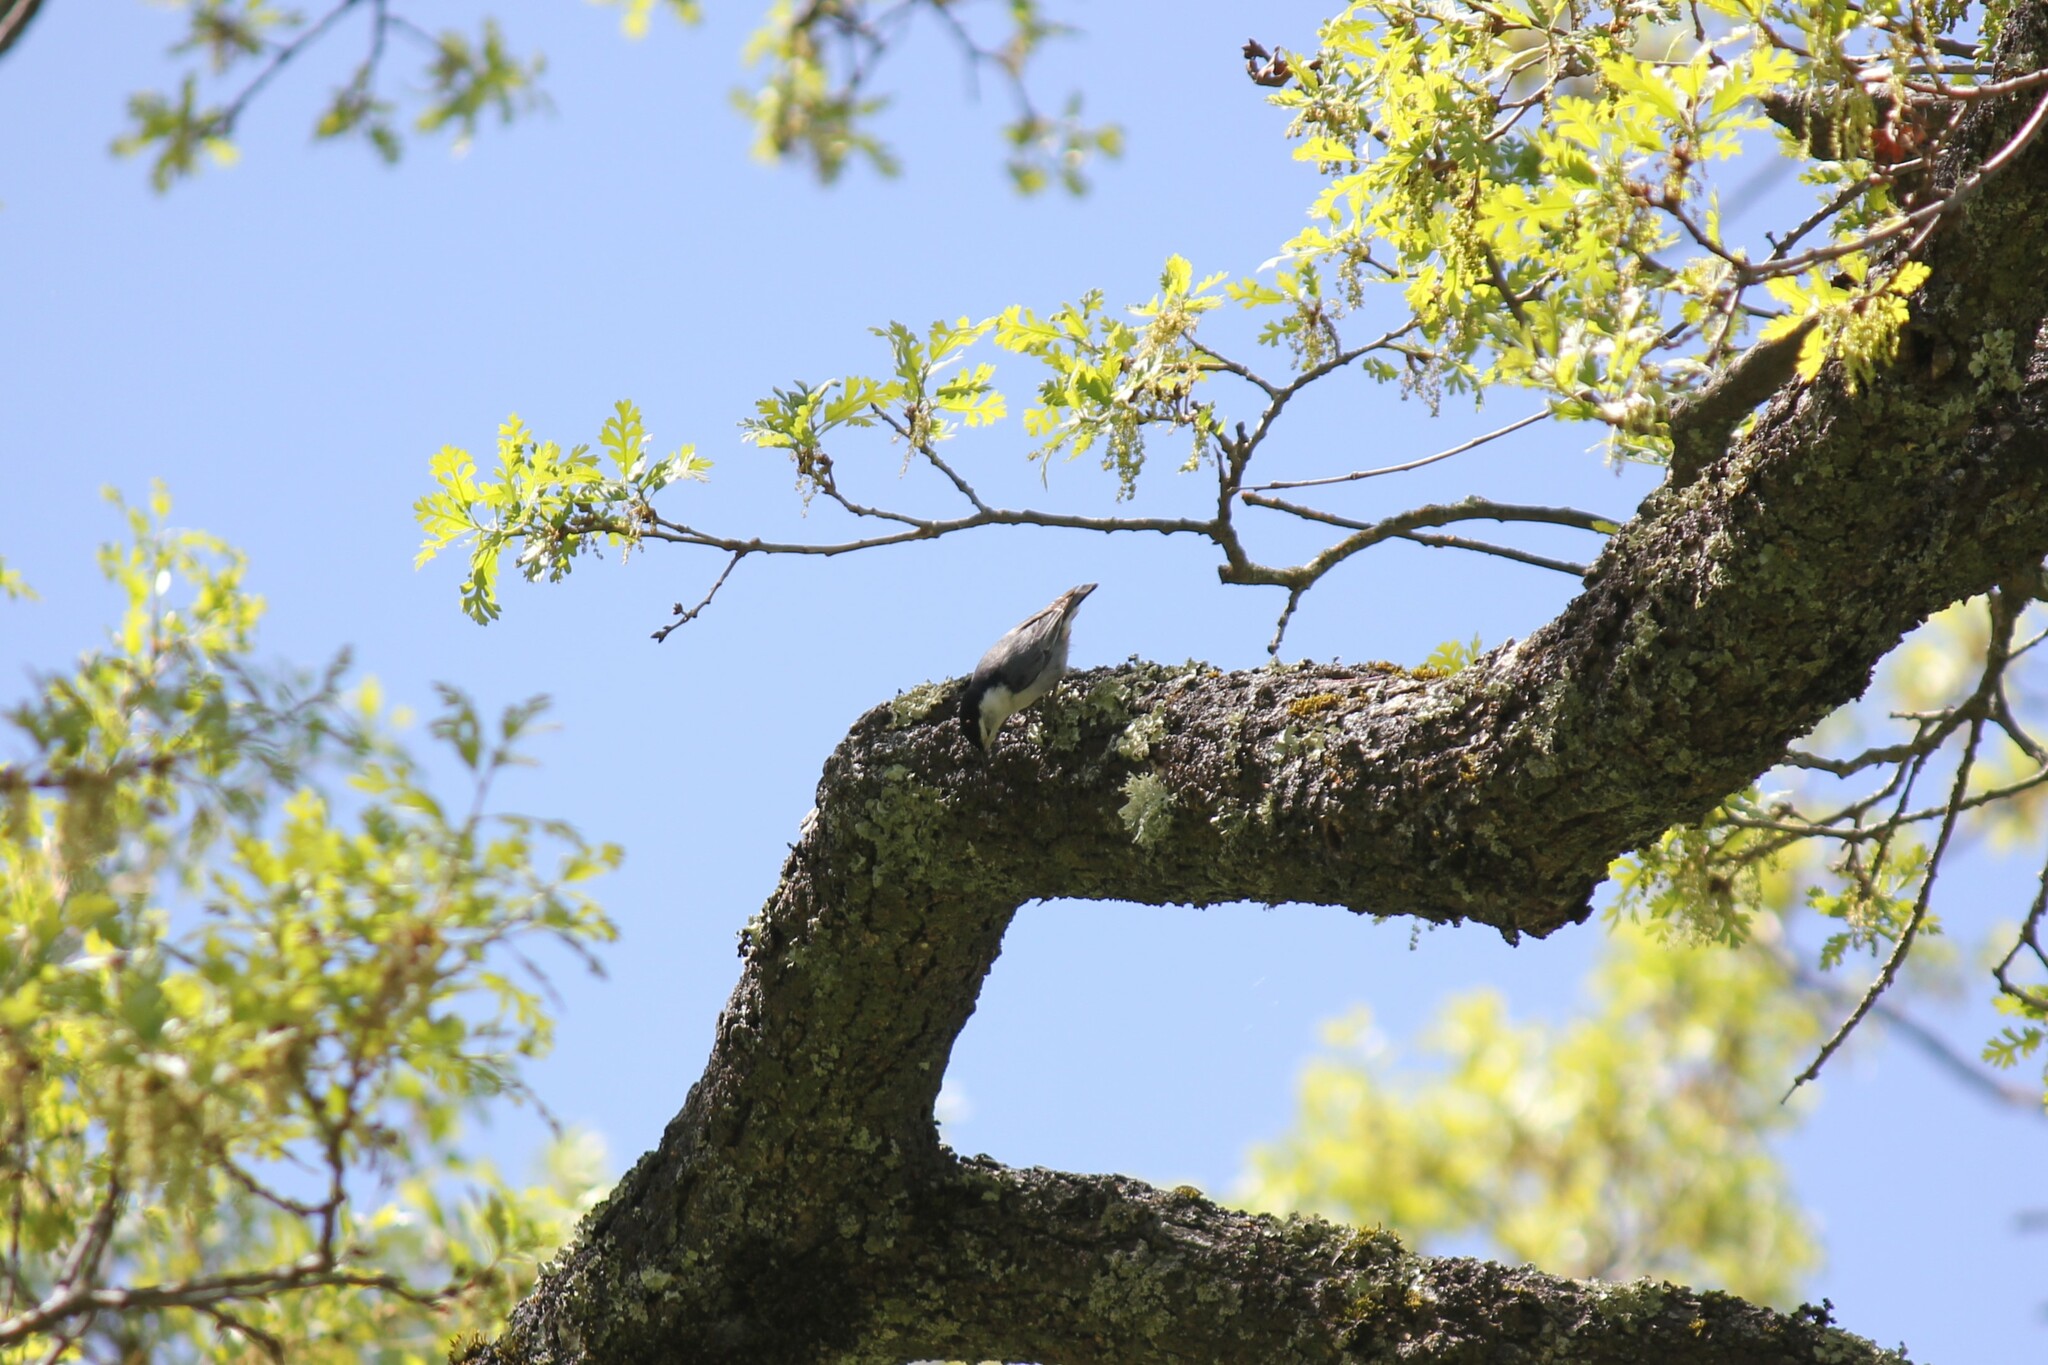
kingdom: Animalia
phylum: Chordata
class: Aves
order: Passeriformes
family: Sittidae
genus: Sitta
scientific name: Sitta carolinensis
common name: White-breasted nuthatch
